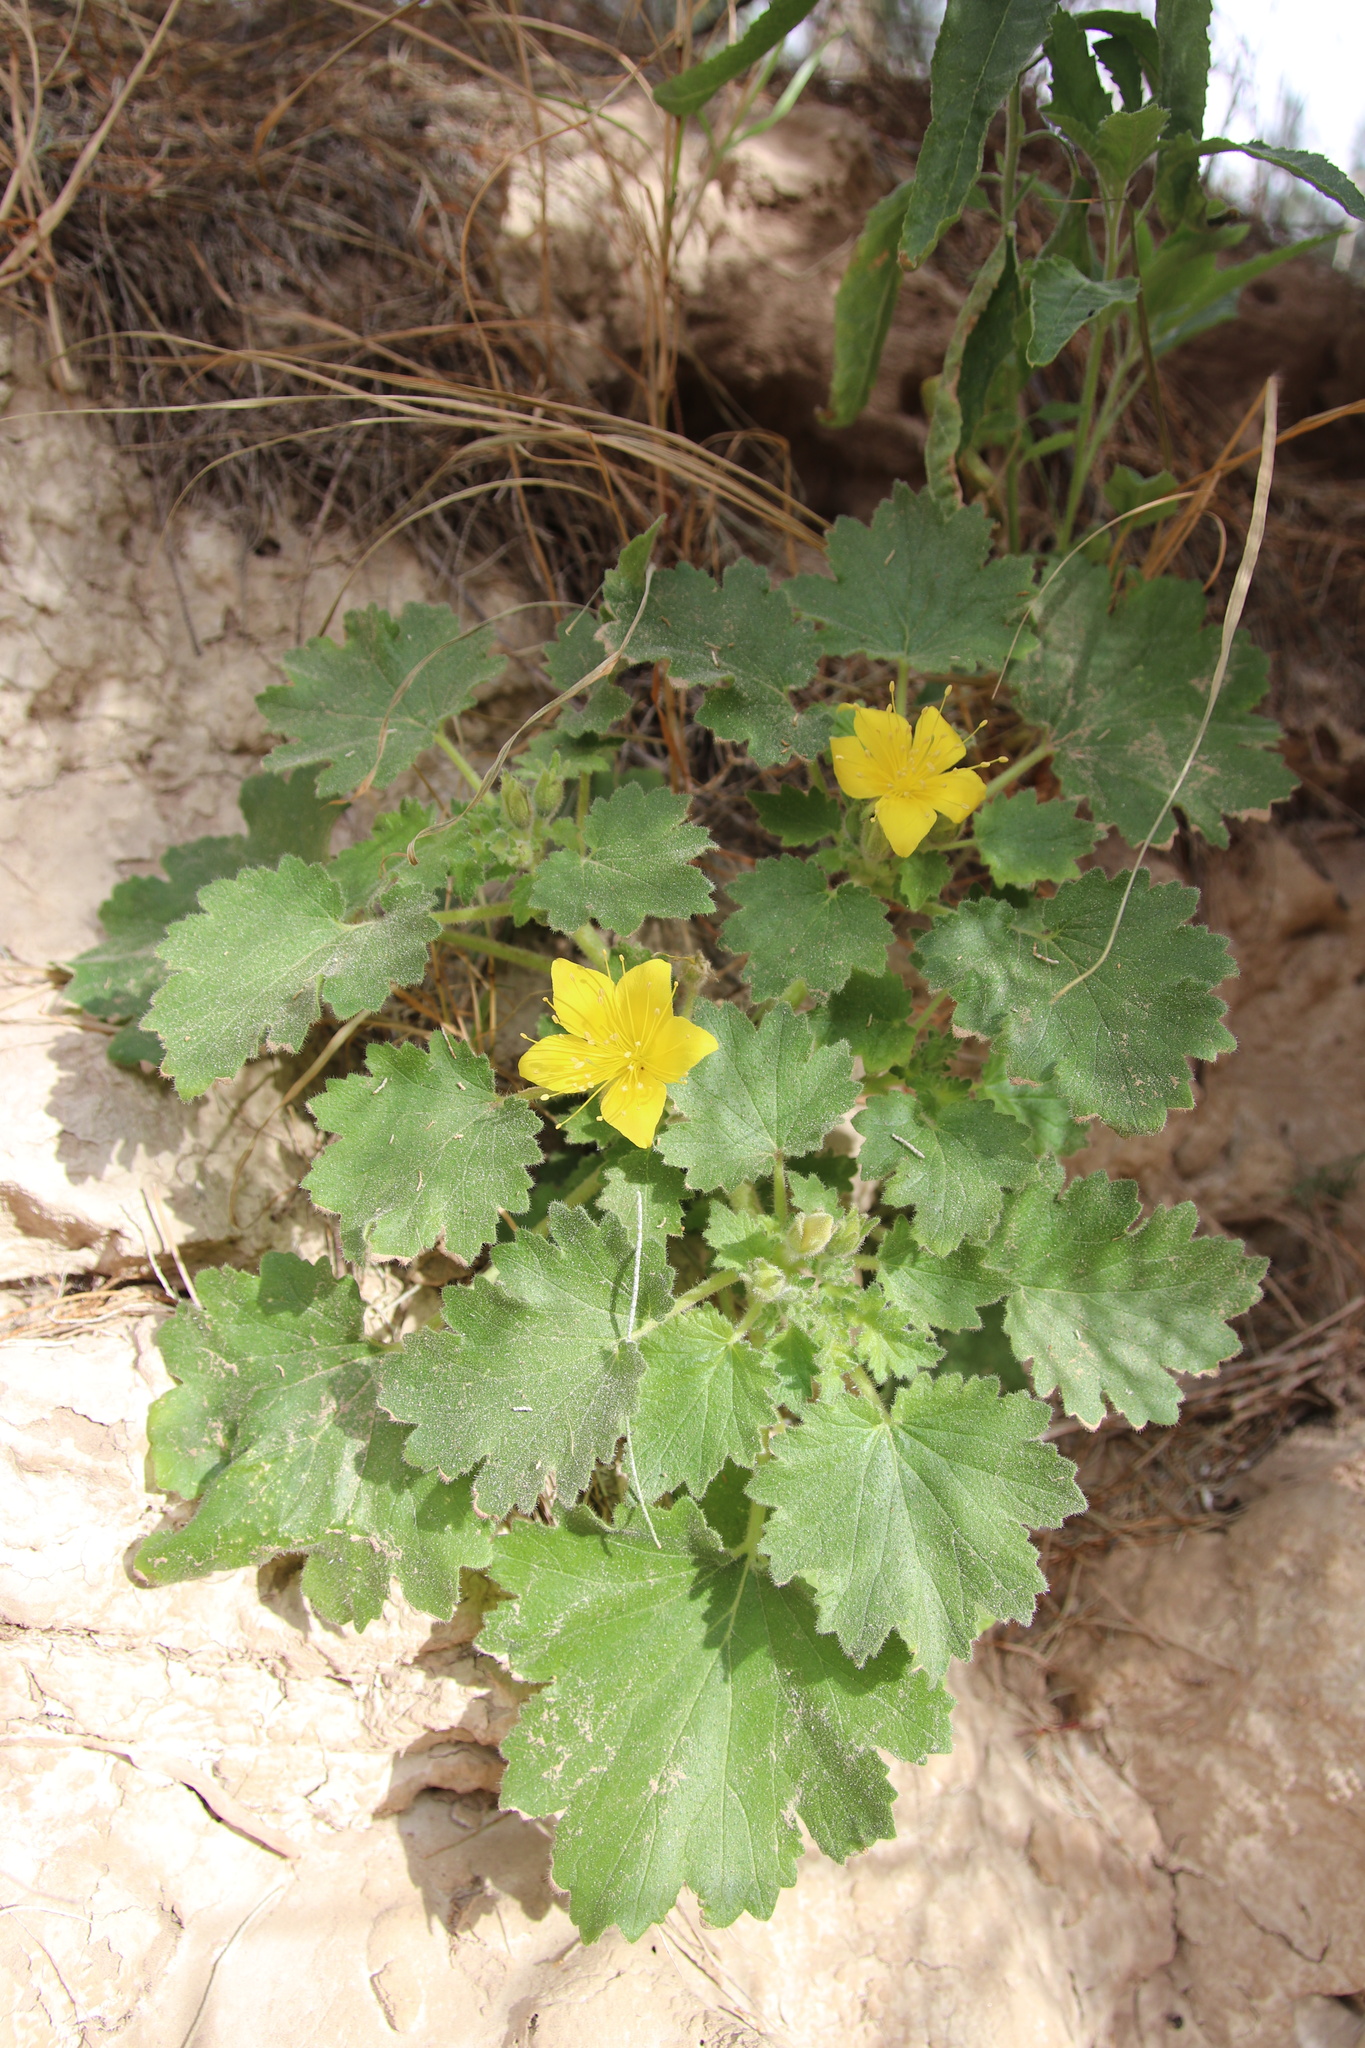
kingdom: Plantae
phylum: Tracheophyta
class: Magnoliopsida
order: Cornales
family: Loasaceae
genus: Eucnide
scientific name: Eucnide bartonioides
